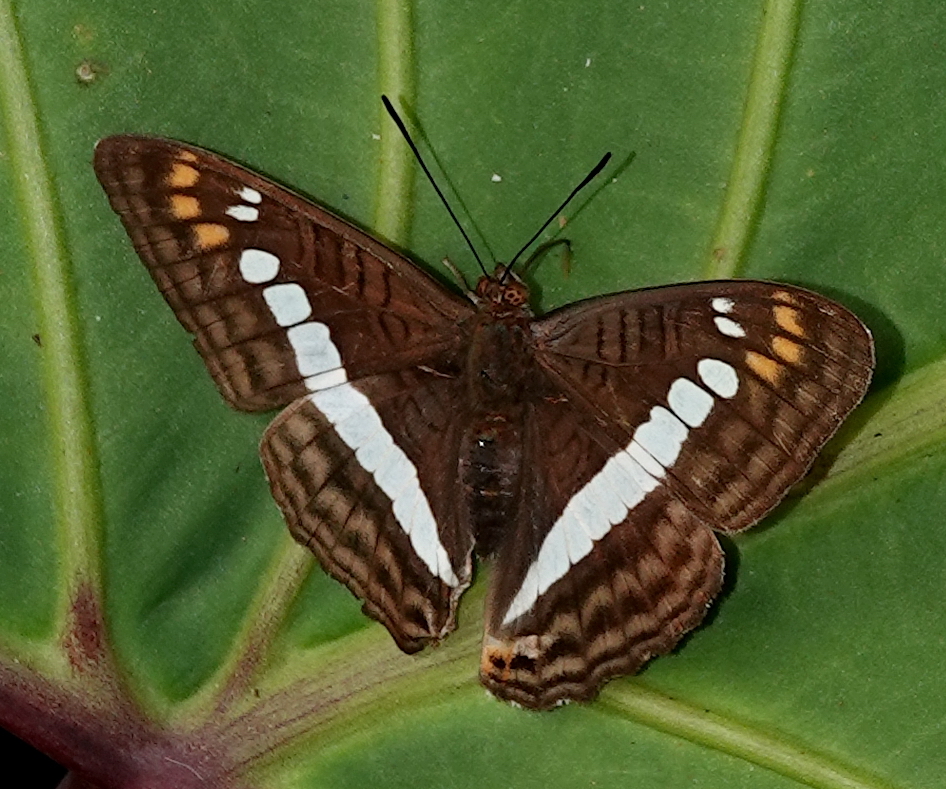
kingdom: Animalia
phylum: Arthropoda
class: Insecta
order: Lepidoptera
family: Nymphalidae
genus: Limenitis
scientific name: Limenitis alala
